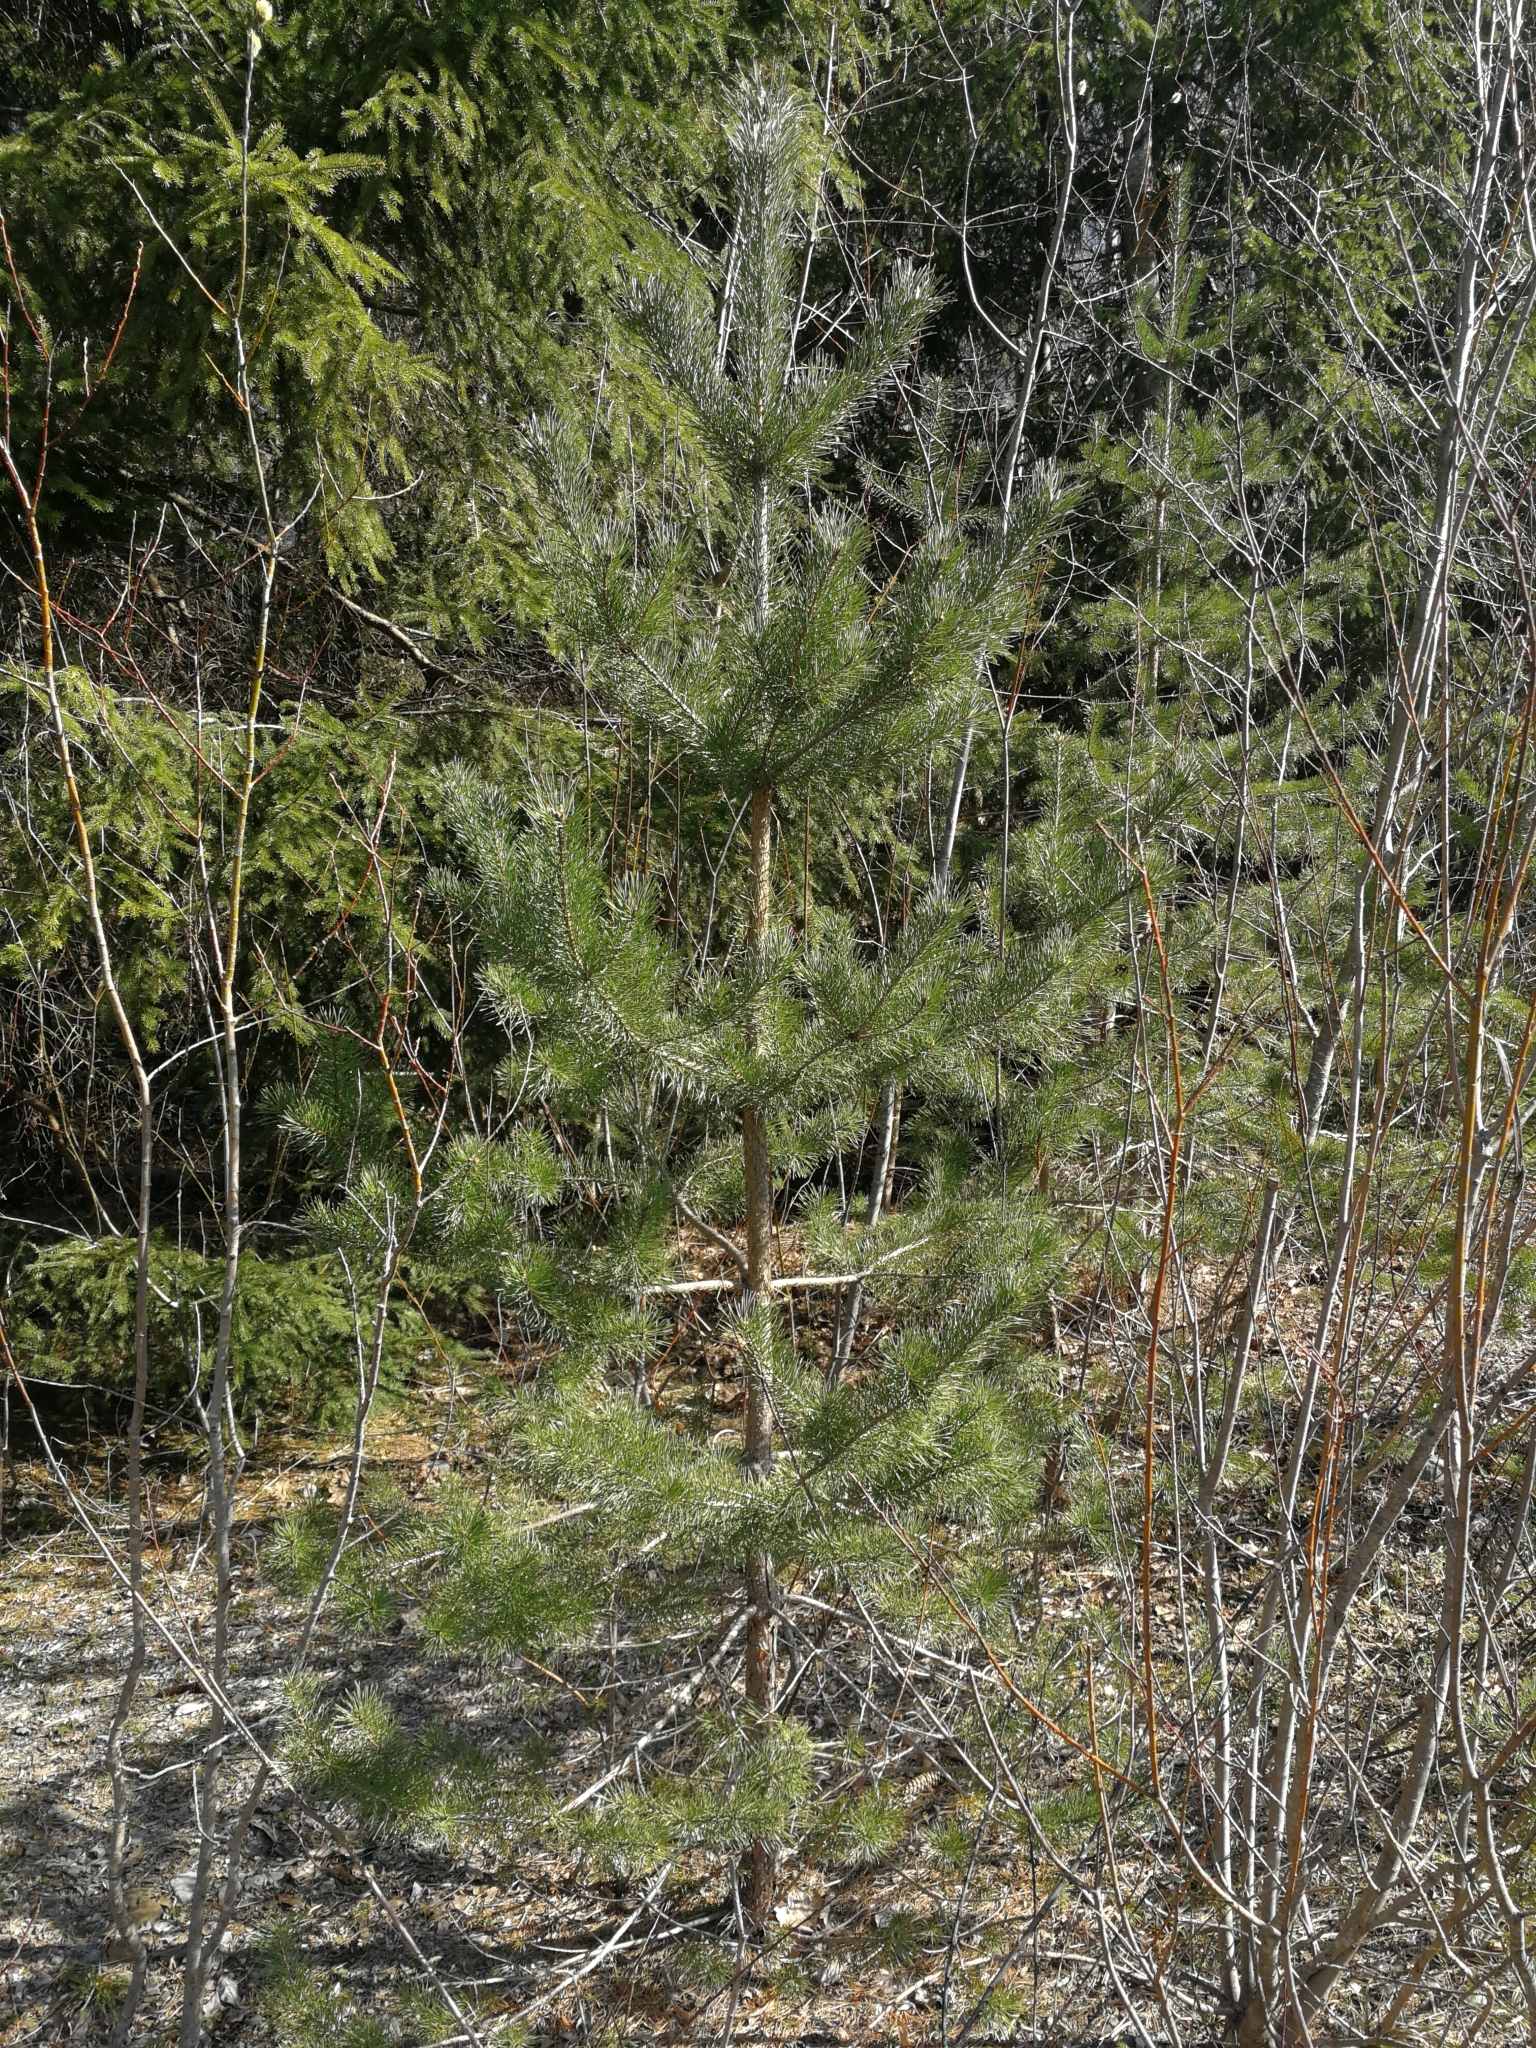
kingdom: Plantae
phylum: Tracheophyta
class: Pinopsida
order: Pinales
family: Pinaceae
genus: Pinus
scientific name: Pinus sylvestris
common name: Scots pine
